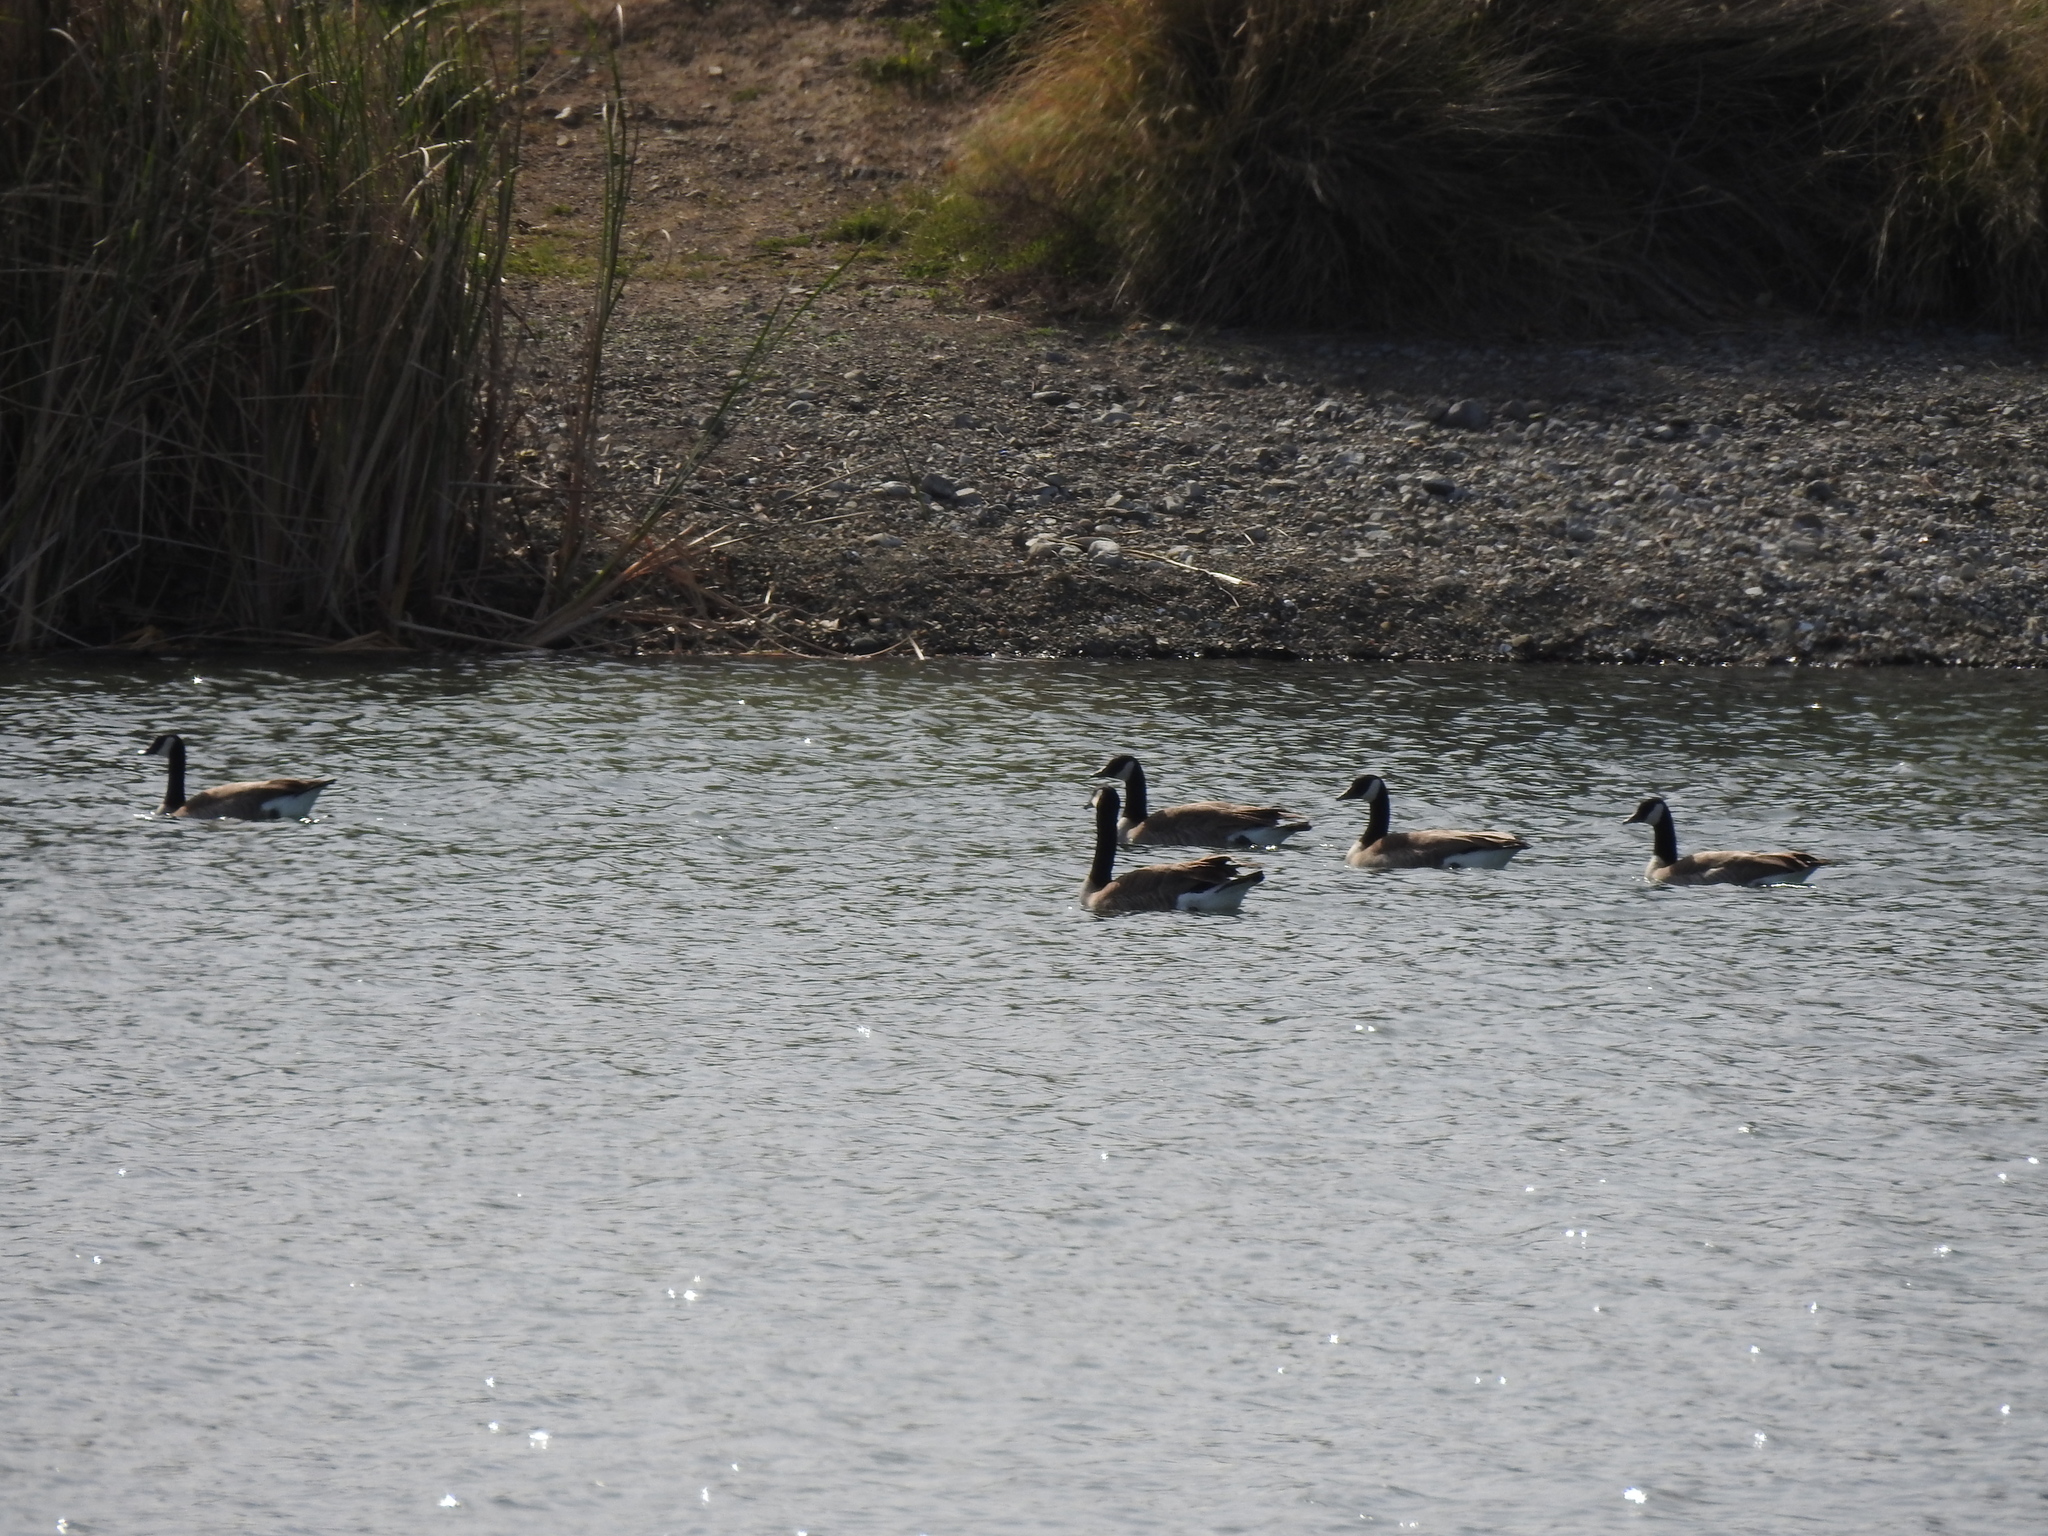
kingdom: Animalia
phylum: Chordata
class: Aves
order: Anseriformes
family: Anatidae
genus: Branta
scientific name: Branta canadensis
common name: Canada goose
